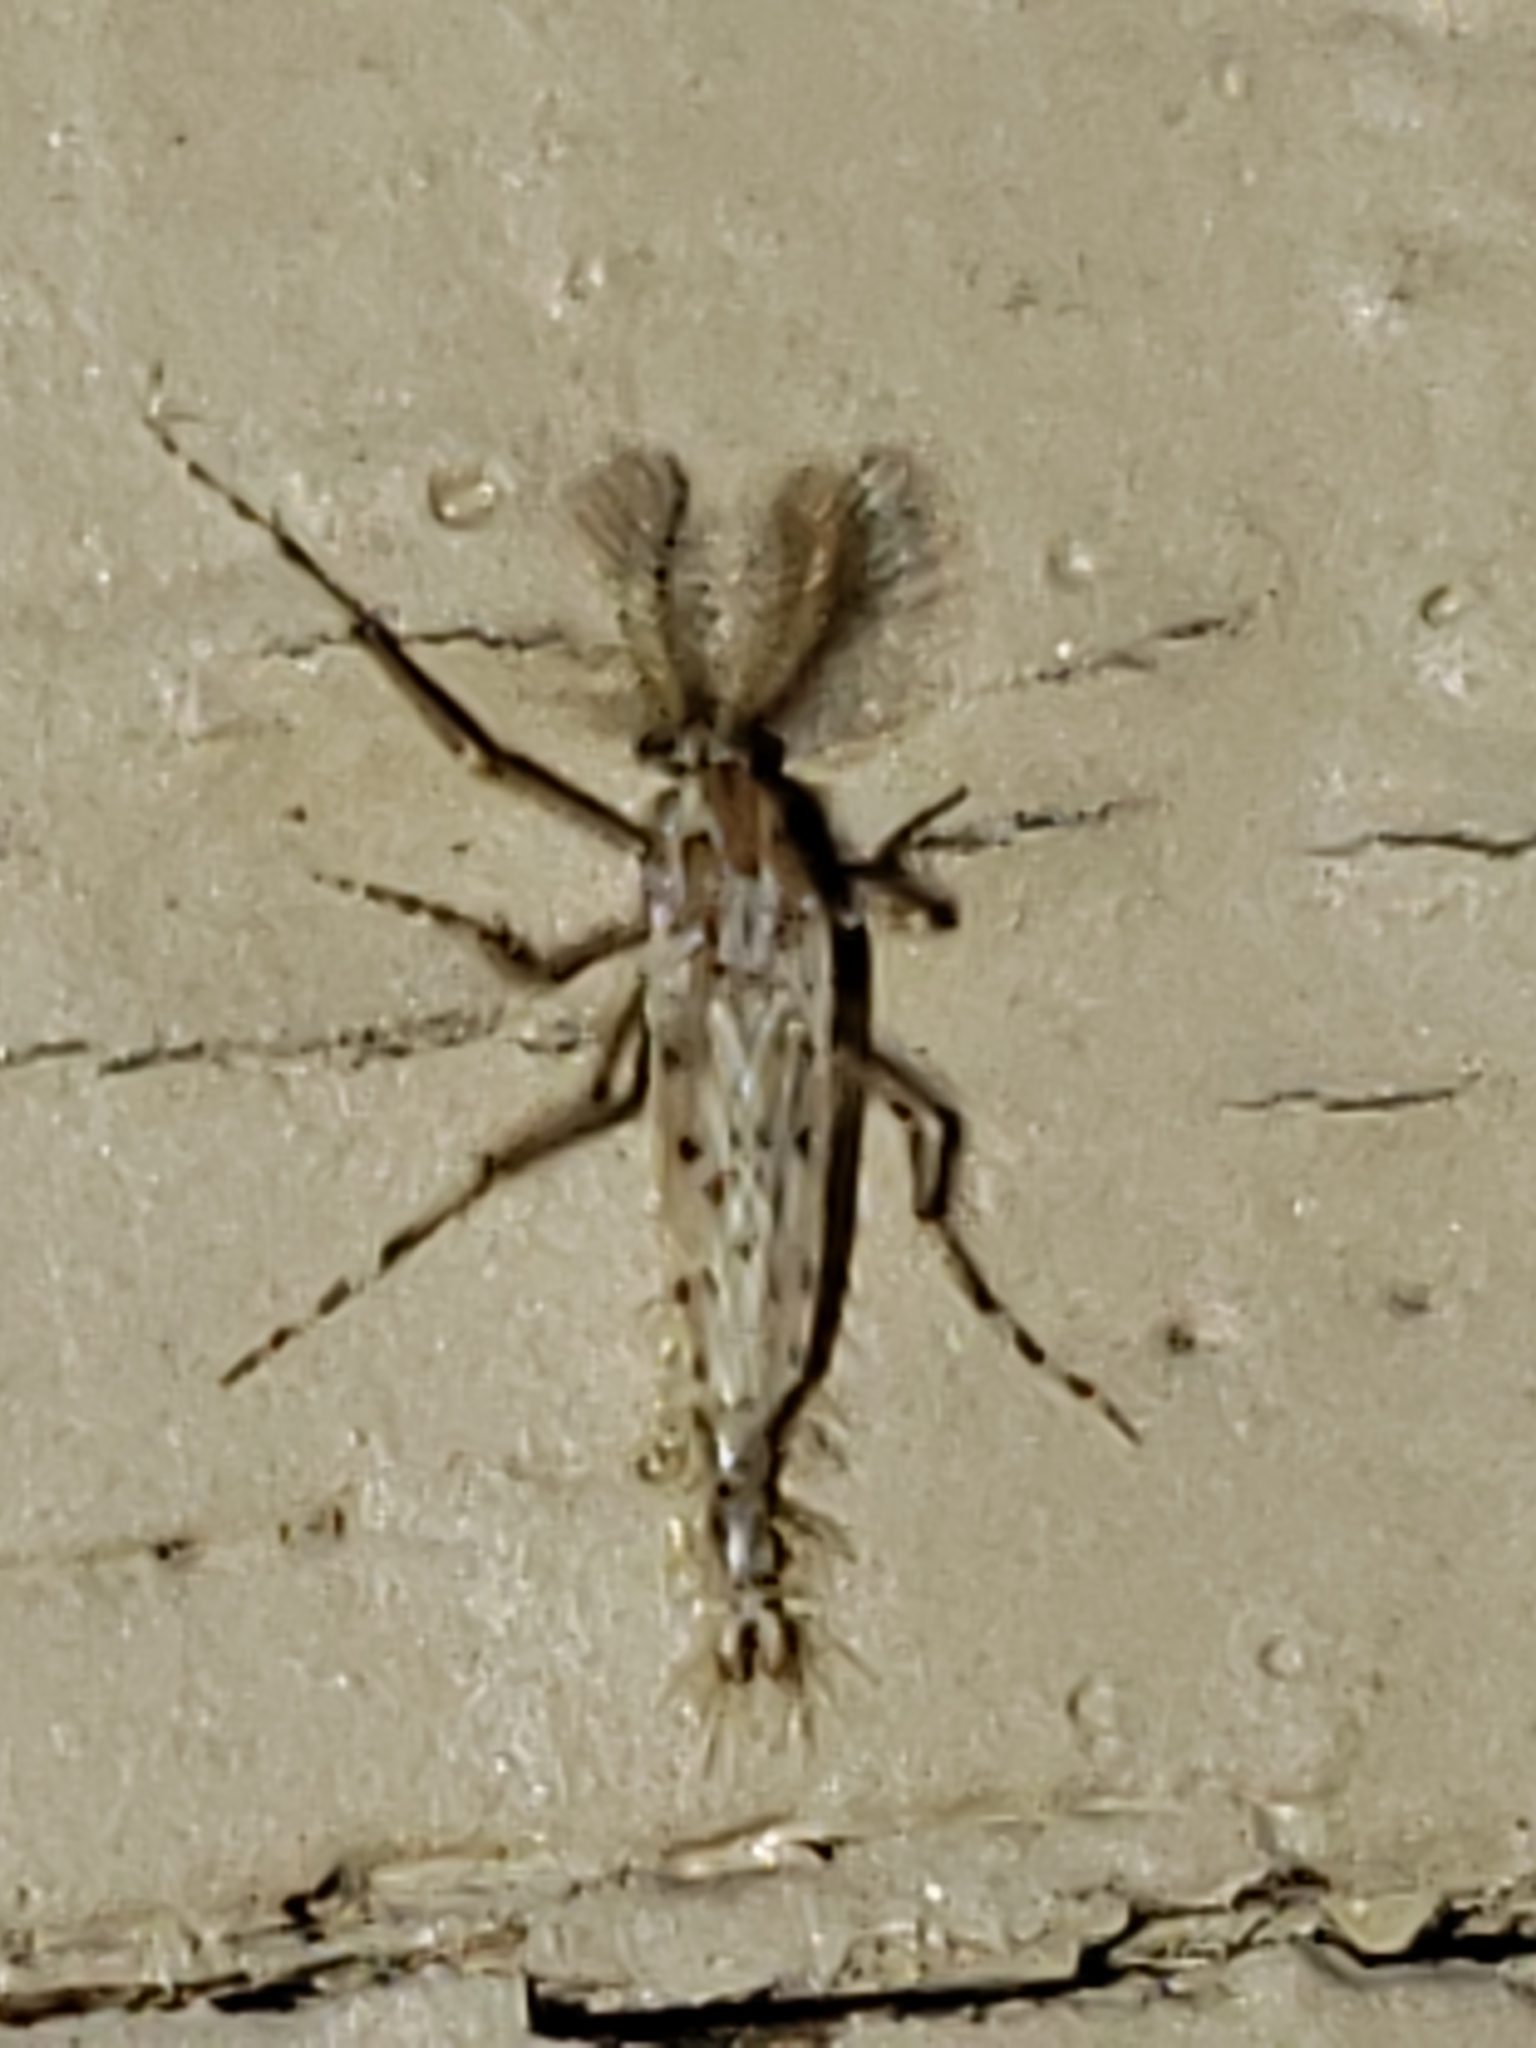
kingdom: Animalia
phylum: Arthropoda
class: Insecta
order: Diptera
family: Chaoboridae
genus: Chaoborus
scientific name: Chaoborus punctipennis
